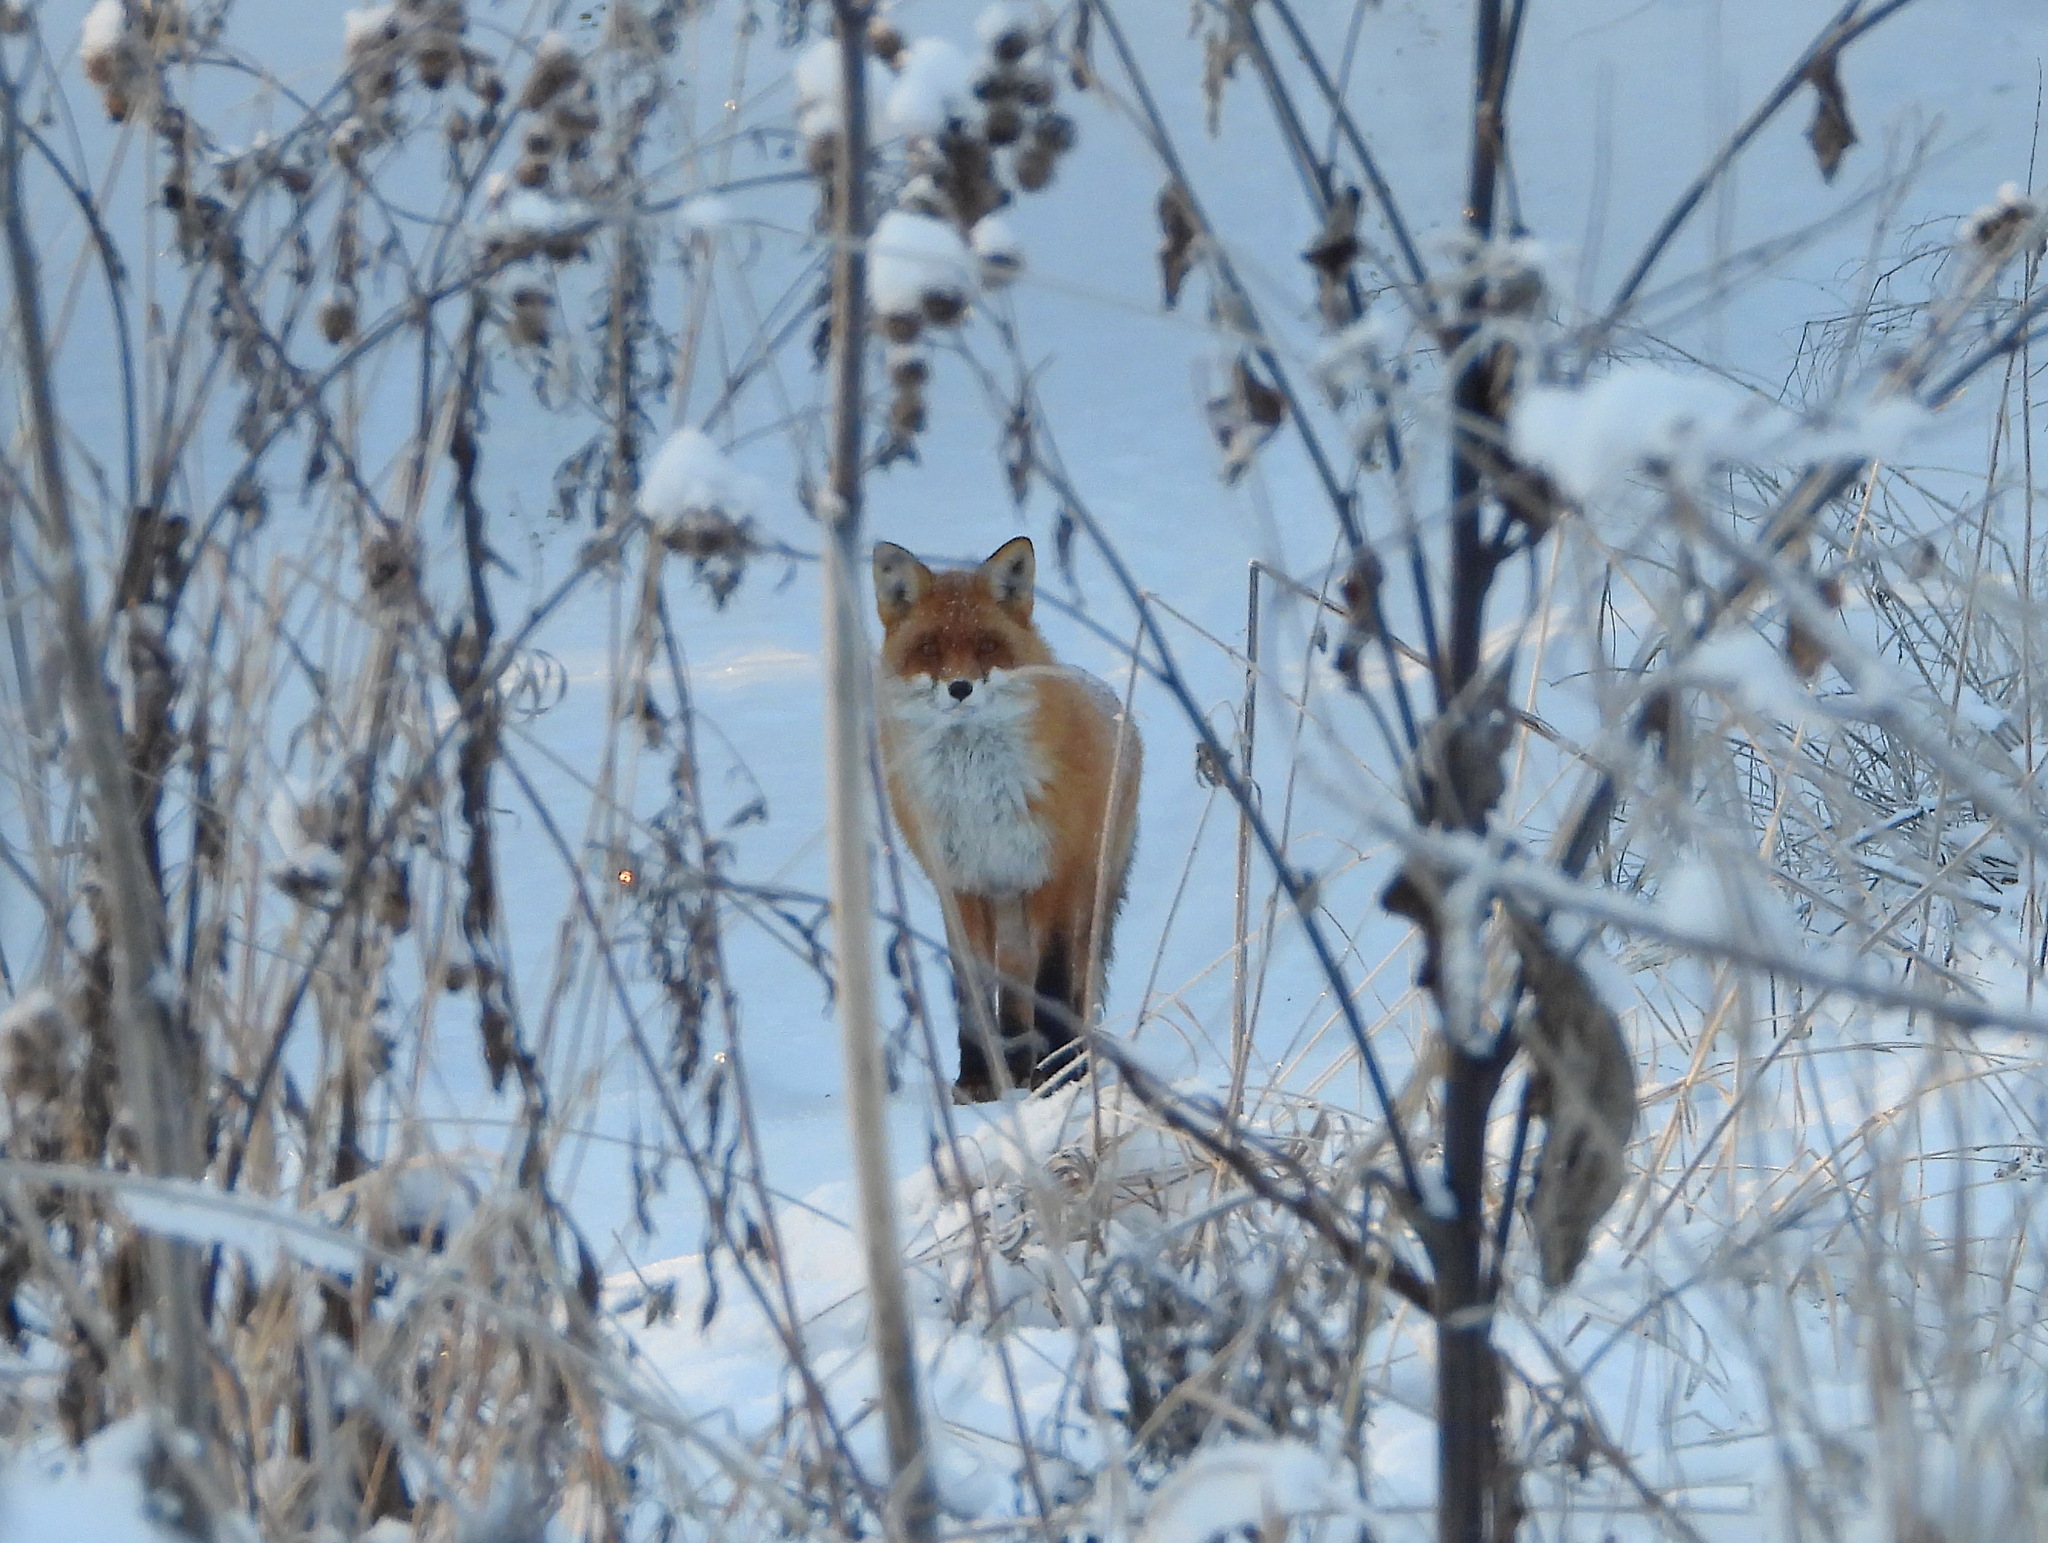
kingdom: Animalia
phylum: Chordata
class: Mammalia
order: Carnivora
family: Canidae
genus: Vulpes
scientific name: Vulpes vulpes
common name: Red fox
